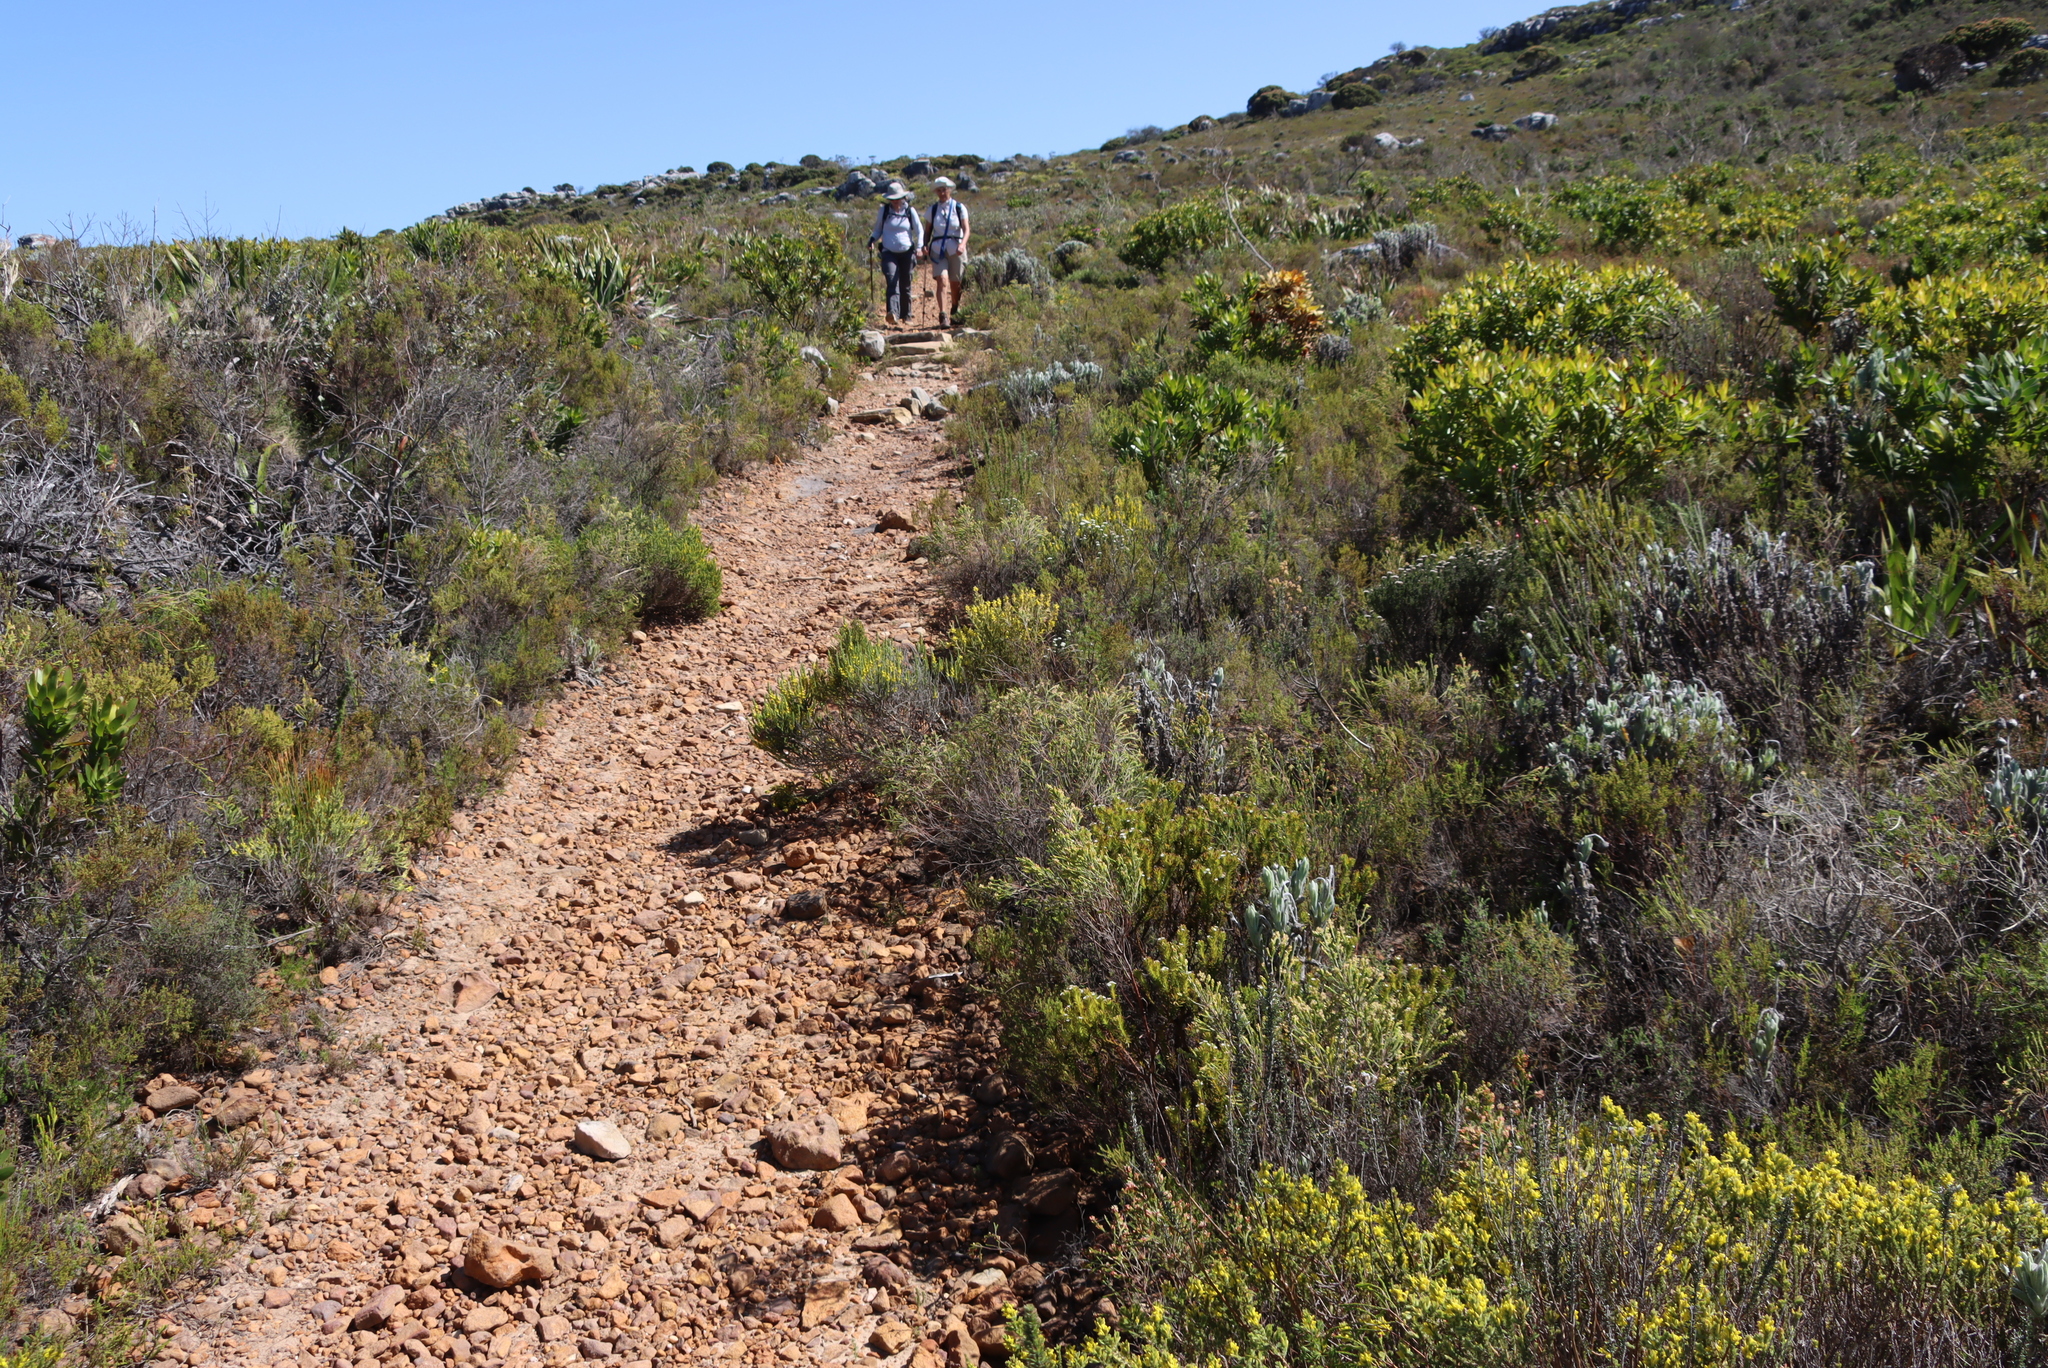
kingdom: Plantae
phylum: Tracheophyta
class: Magnoliopsida
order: Fabales
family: Fabaceae
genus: Aspalathus
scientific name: Aspalathus ericifolia
